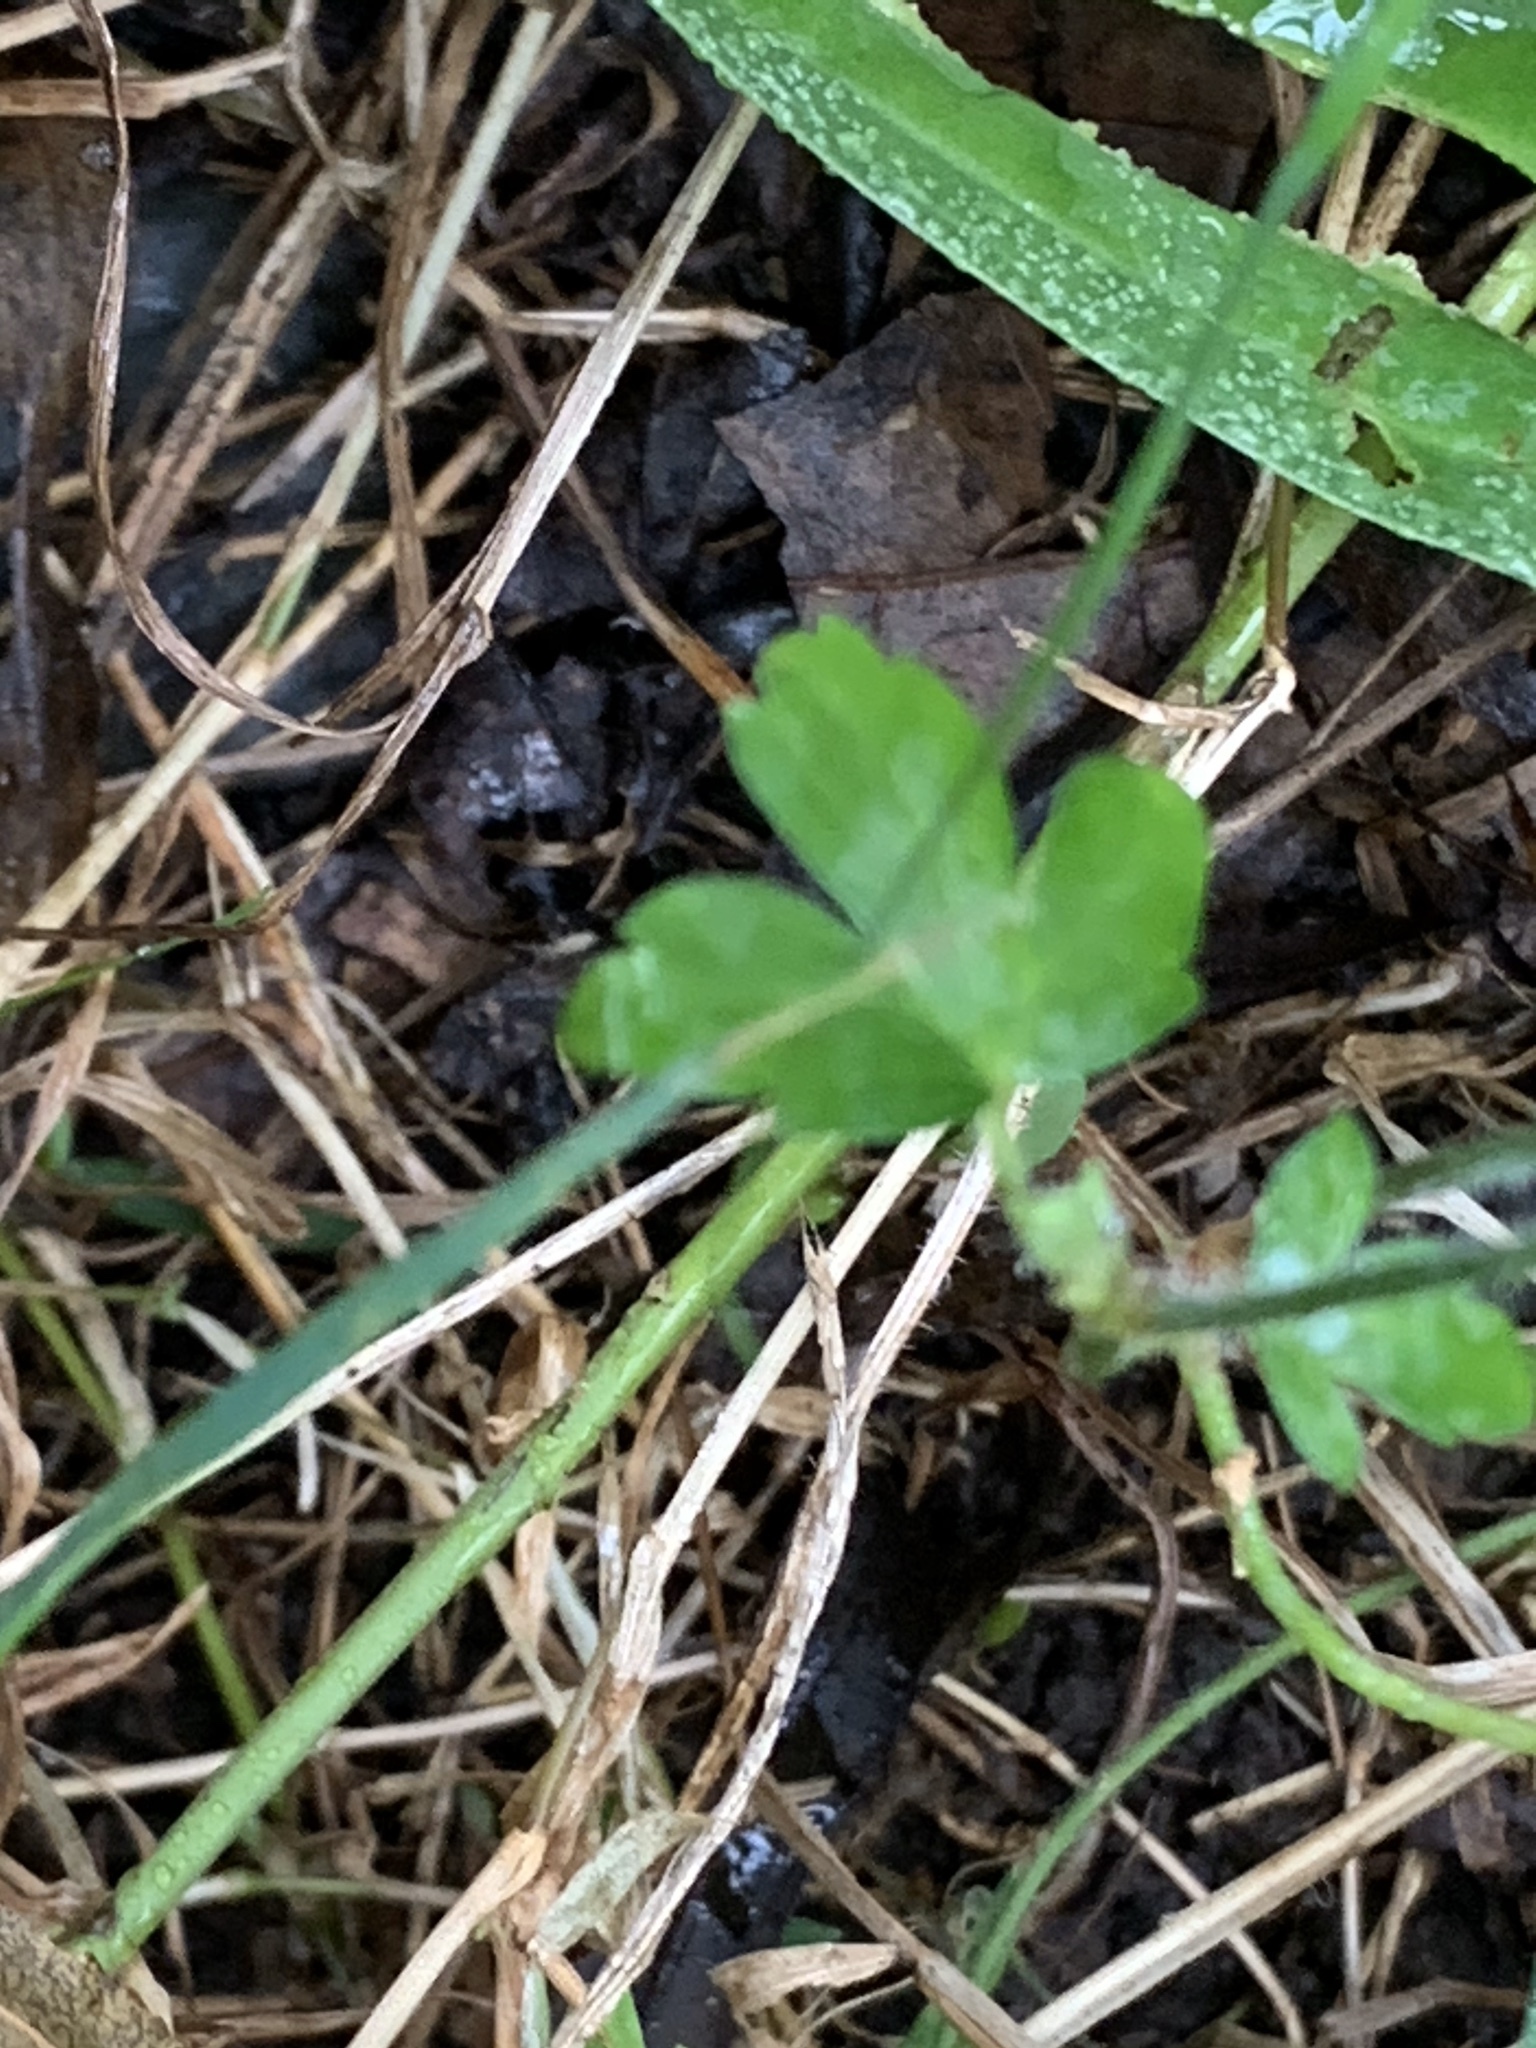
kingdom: Plantae
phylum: Tracheophyta
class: Magnoliopsida
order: Geraniales
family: Geraniaceae
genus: Geranium
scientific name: Geranium thunbergii
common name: Dewdrop crane's-bill
